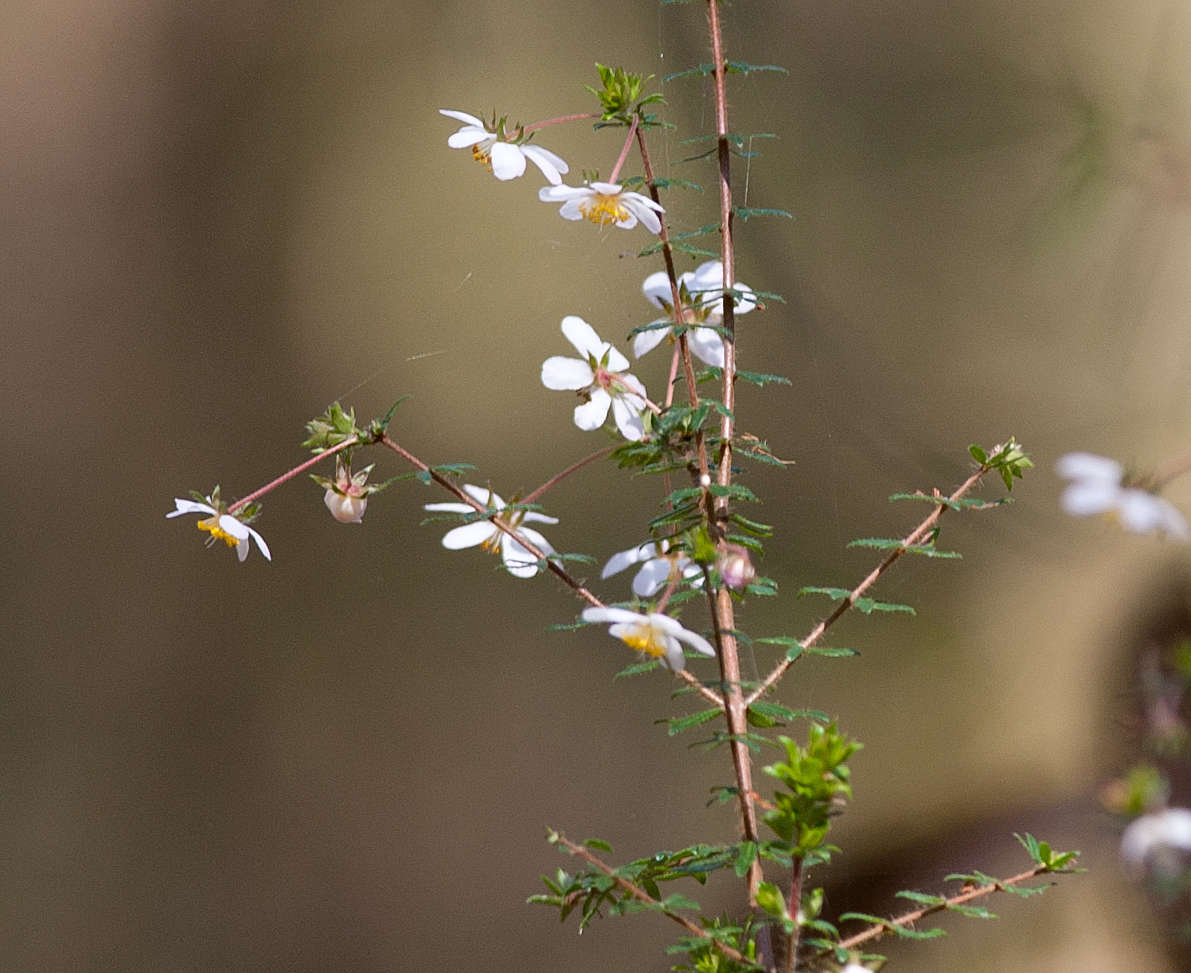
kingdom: Plantae
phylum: Tracheophyta
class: Magnoliopsida
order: Oxalidales
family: Cunoniaceae
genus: Bauera
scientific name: Bauera rubioides
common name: River-rose
